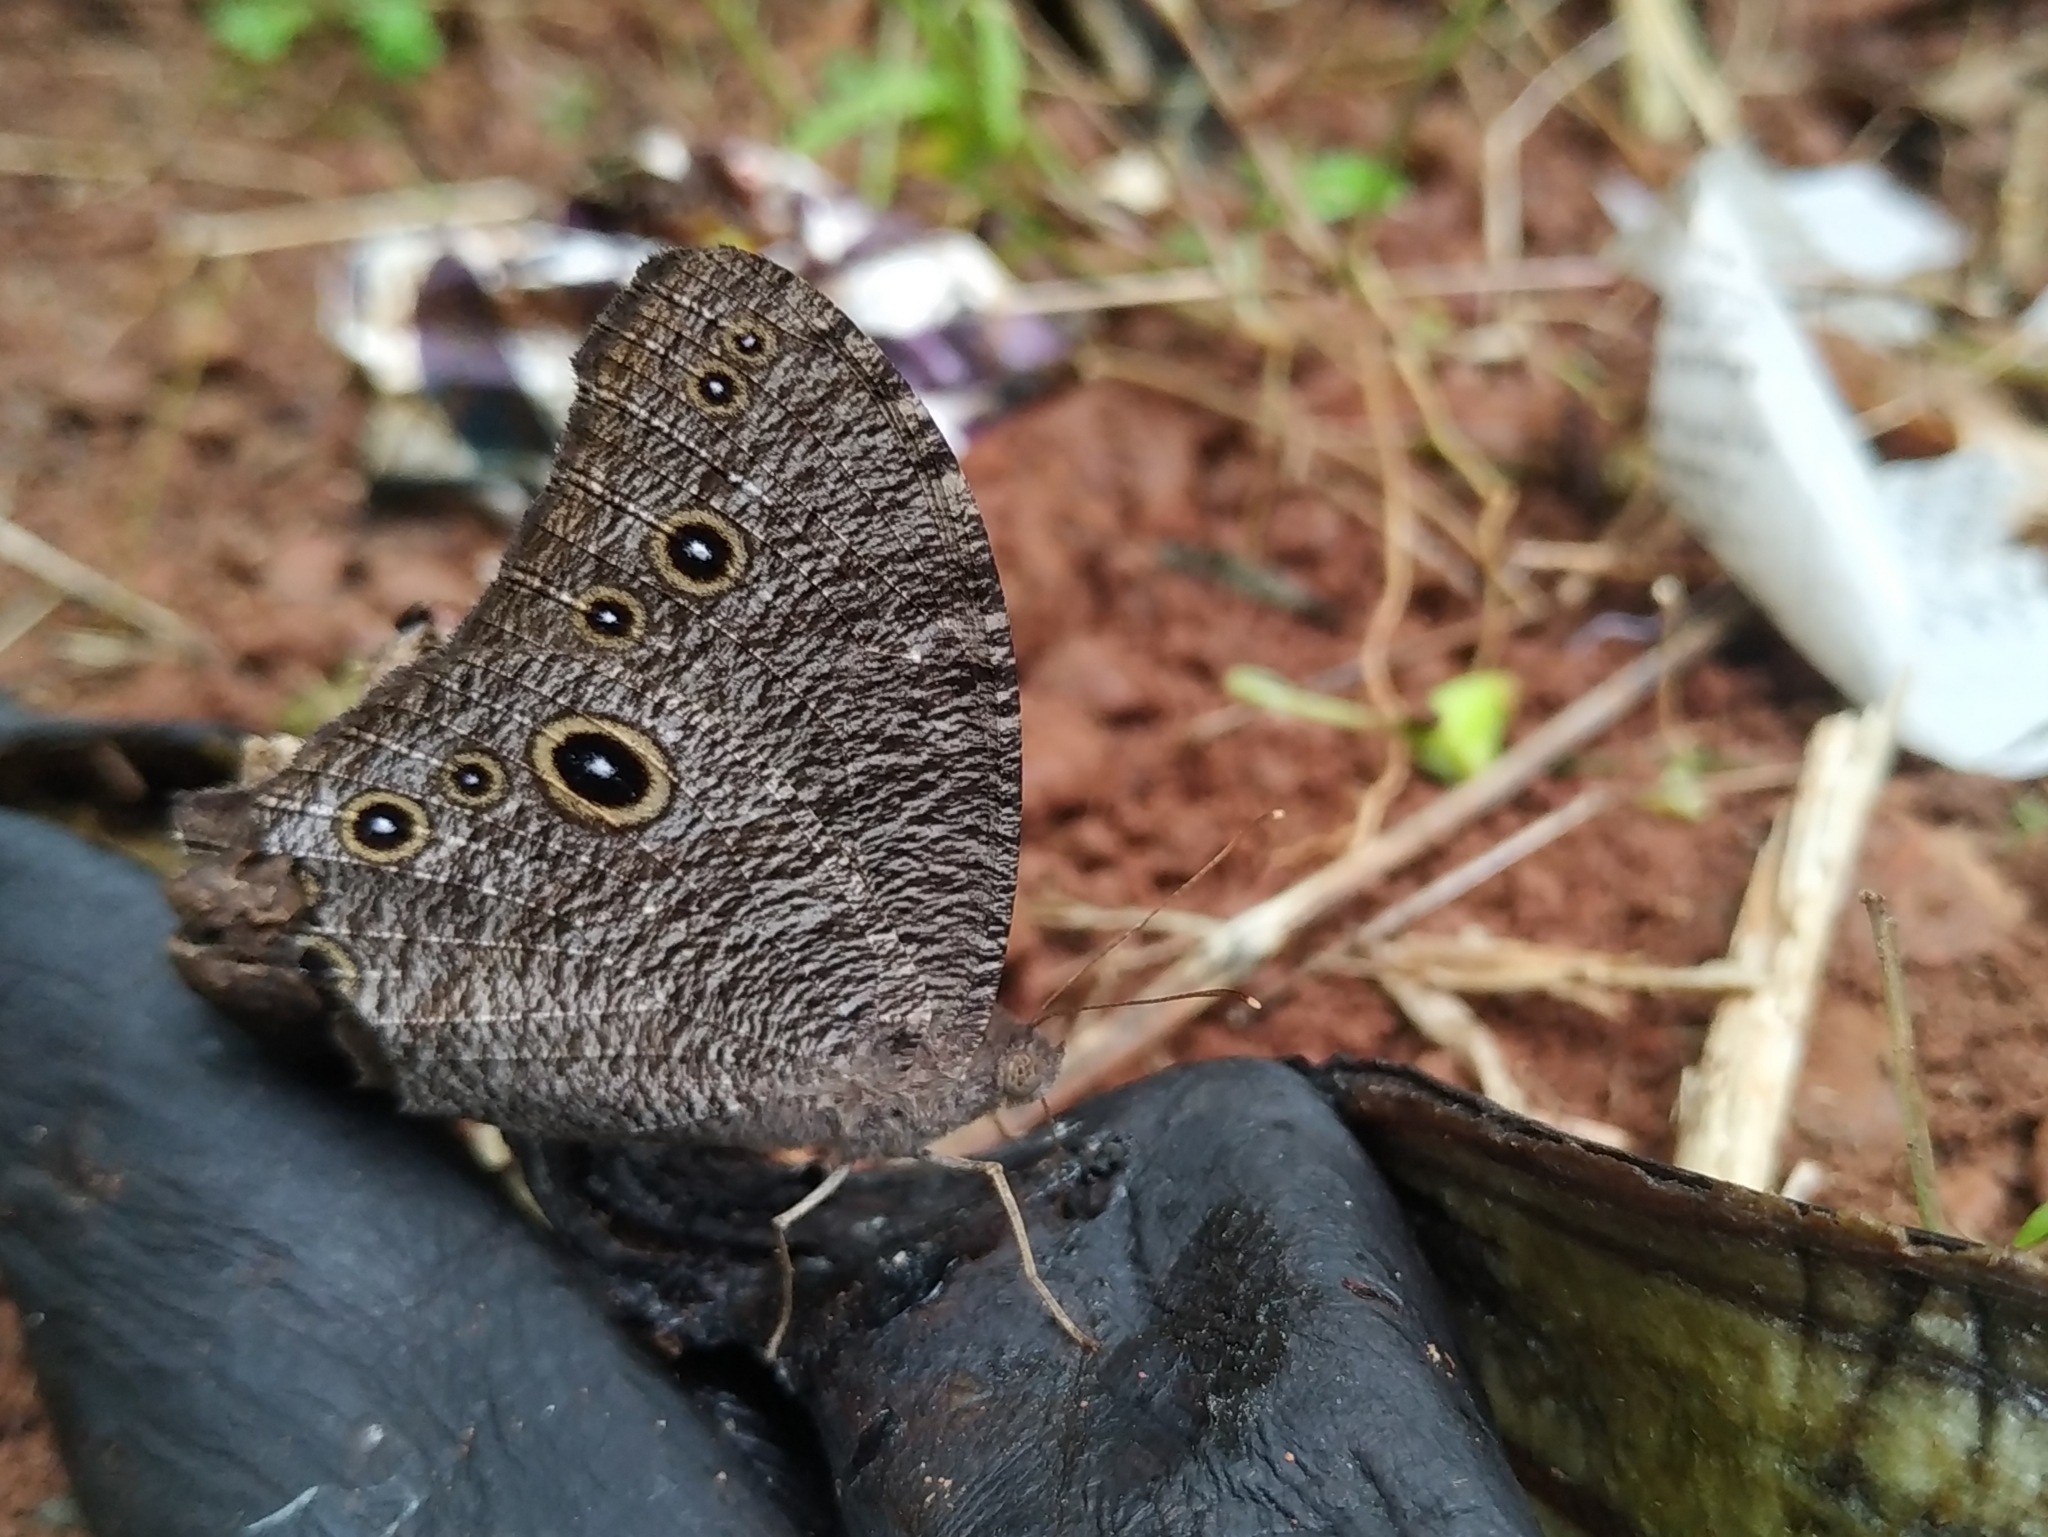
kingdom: Animalia
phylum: Arthropoda
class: Insecta
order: Lepidoptera
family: Nymphalidae
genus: Melanitis
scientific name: Melanitis leda
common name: Twilight brown
